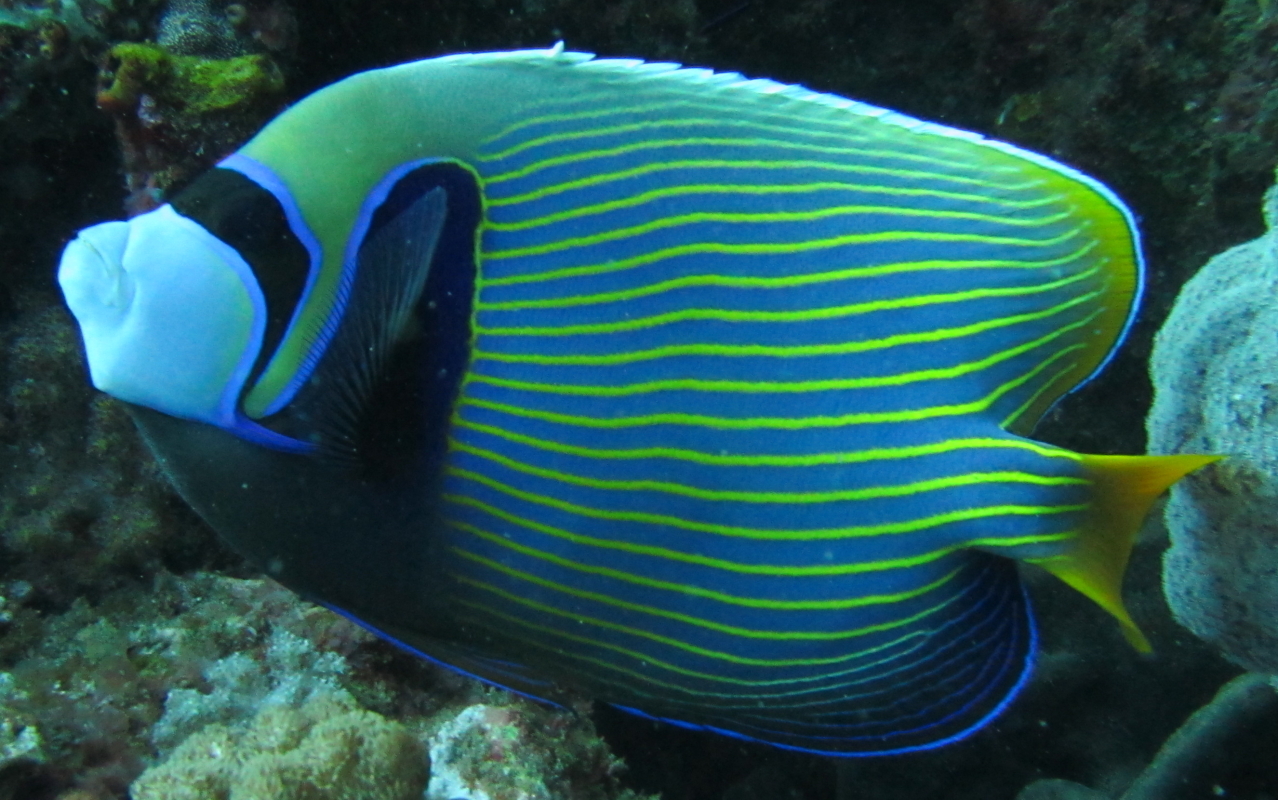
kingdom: Animalia
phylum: Chordata
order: Perciformes
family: Pomacanthidae
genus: Pomacanthus
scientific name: Pomacanthus imperator
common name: Emperor angelfish
